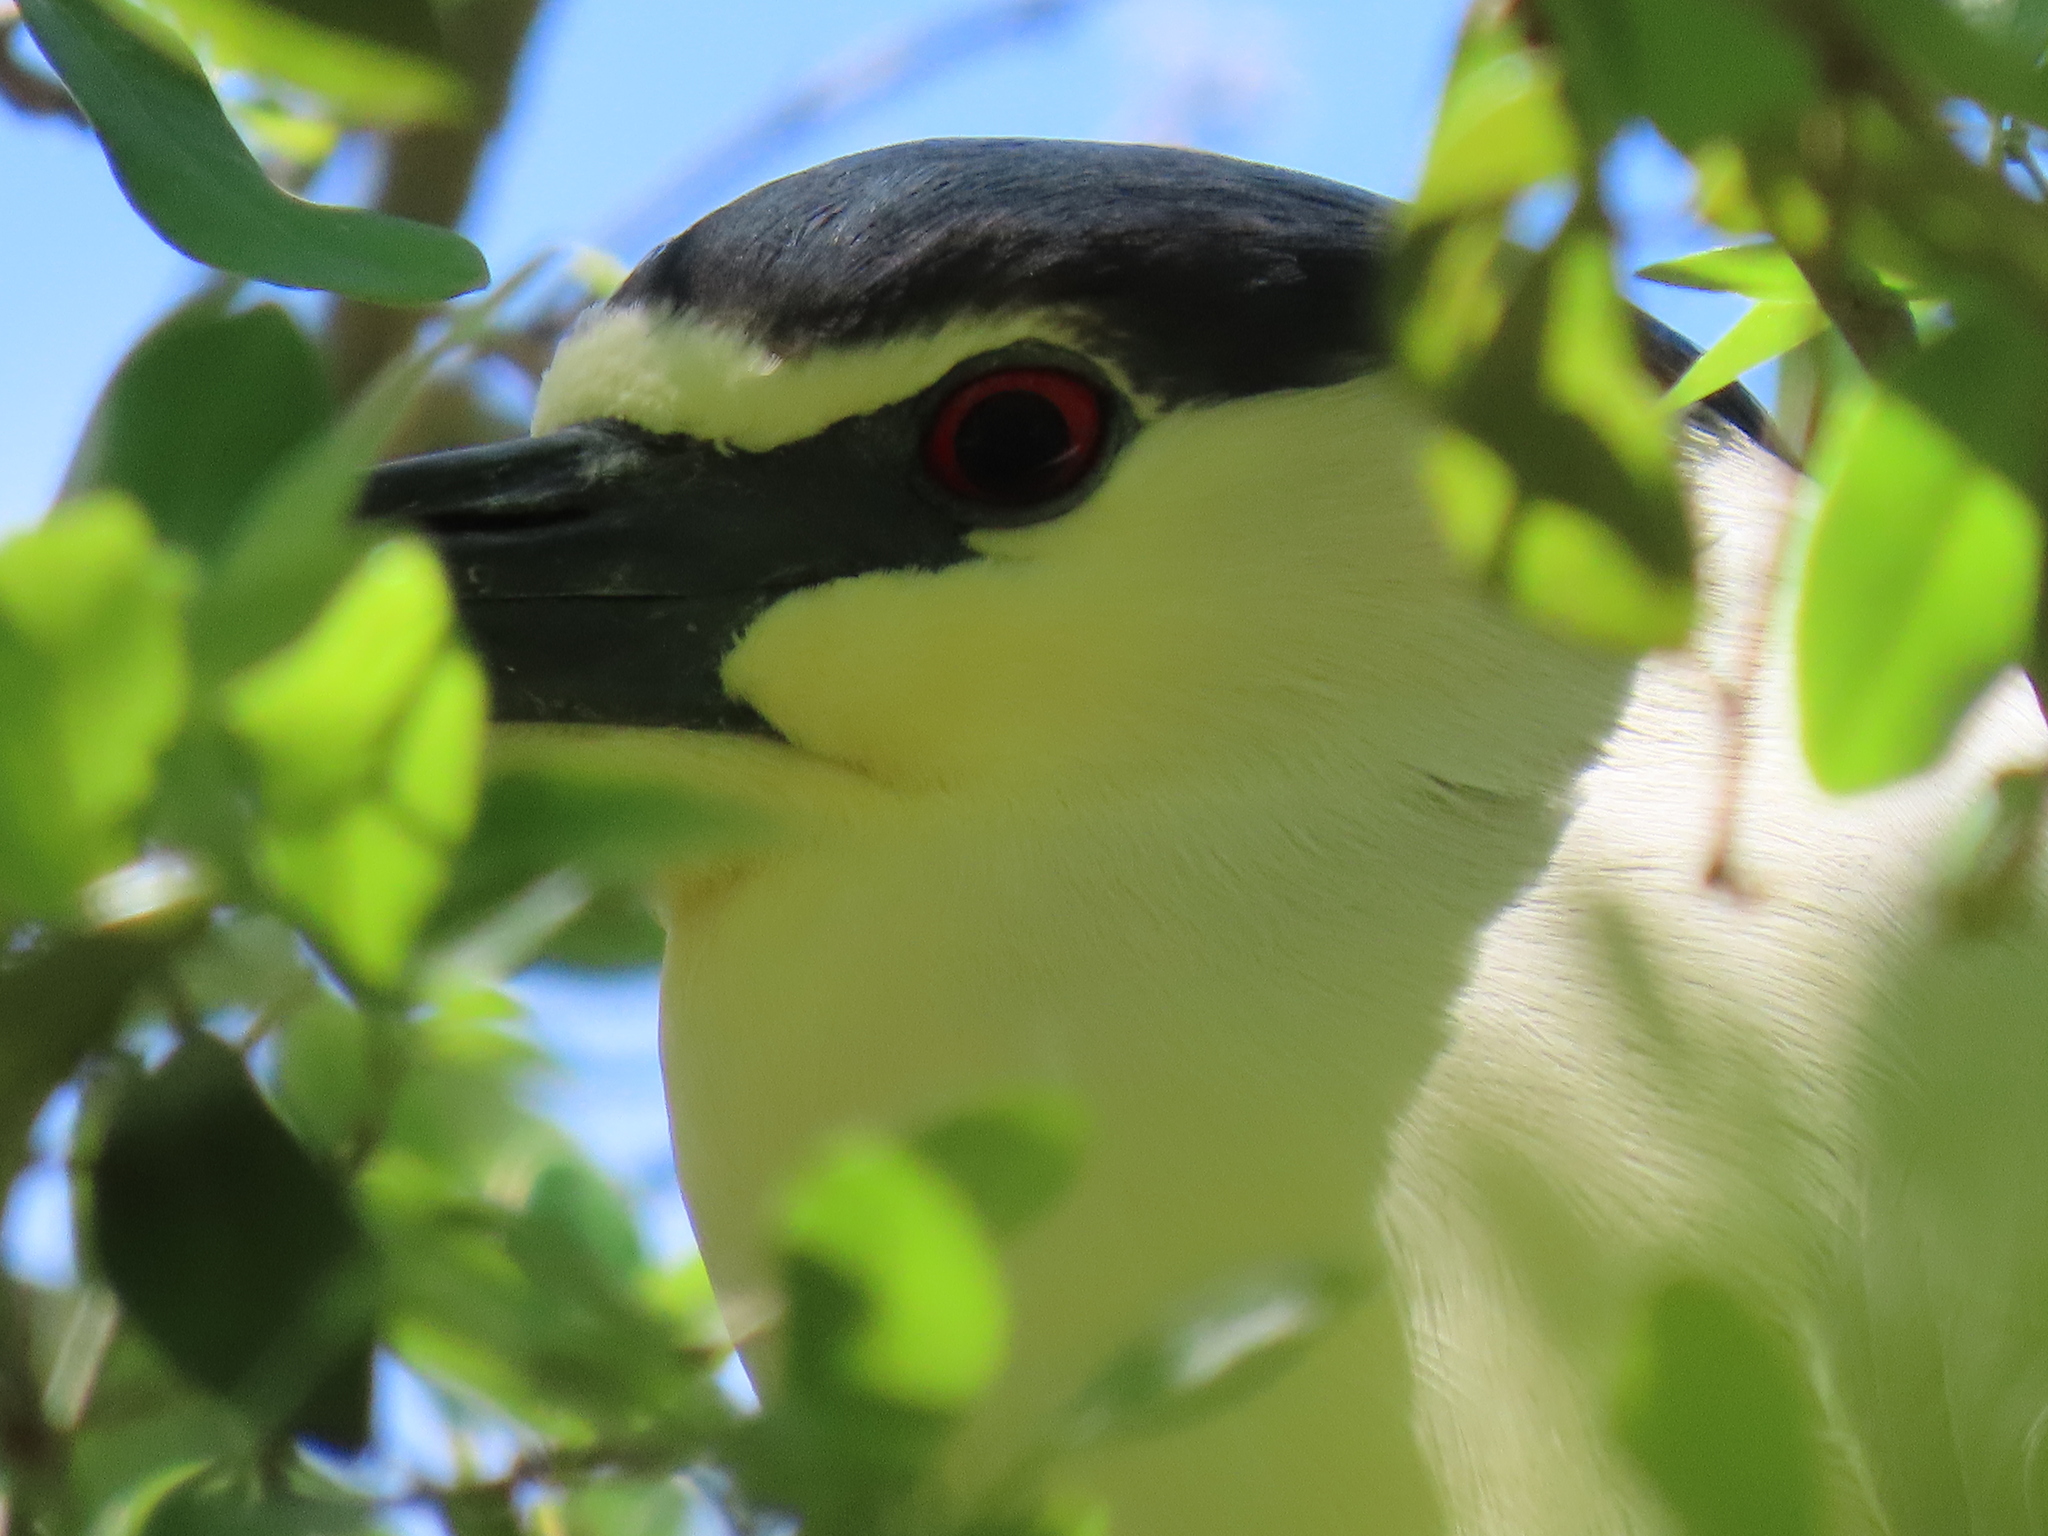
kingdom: Animalia
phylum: Chordata
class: Aves
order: Pelecaniformes
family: Ardeidae
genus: Nycticorax
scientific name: Nycticorax nycticorax
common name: Black-crowned night heron
